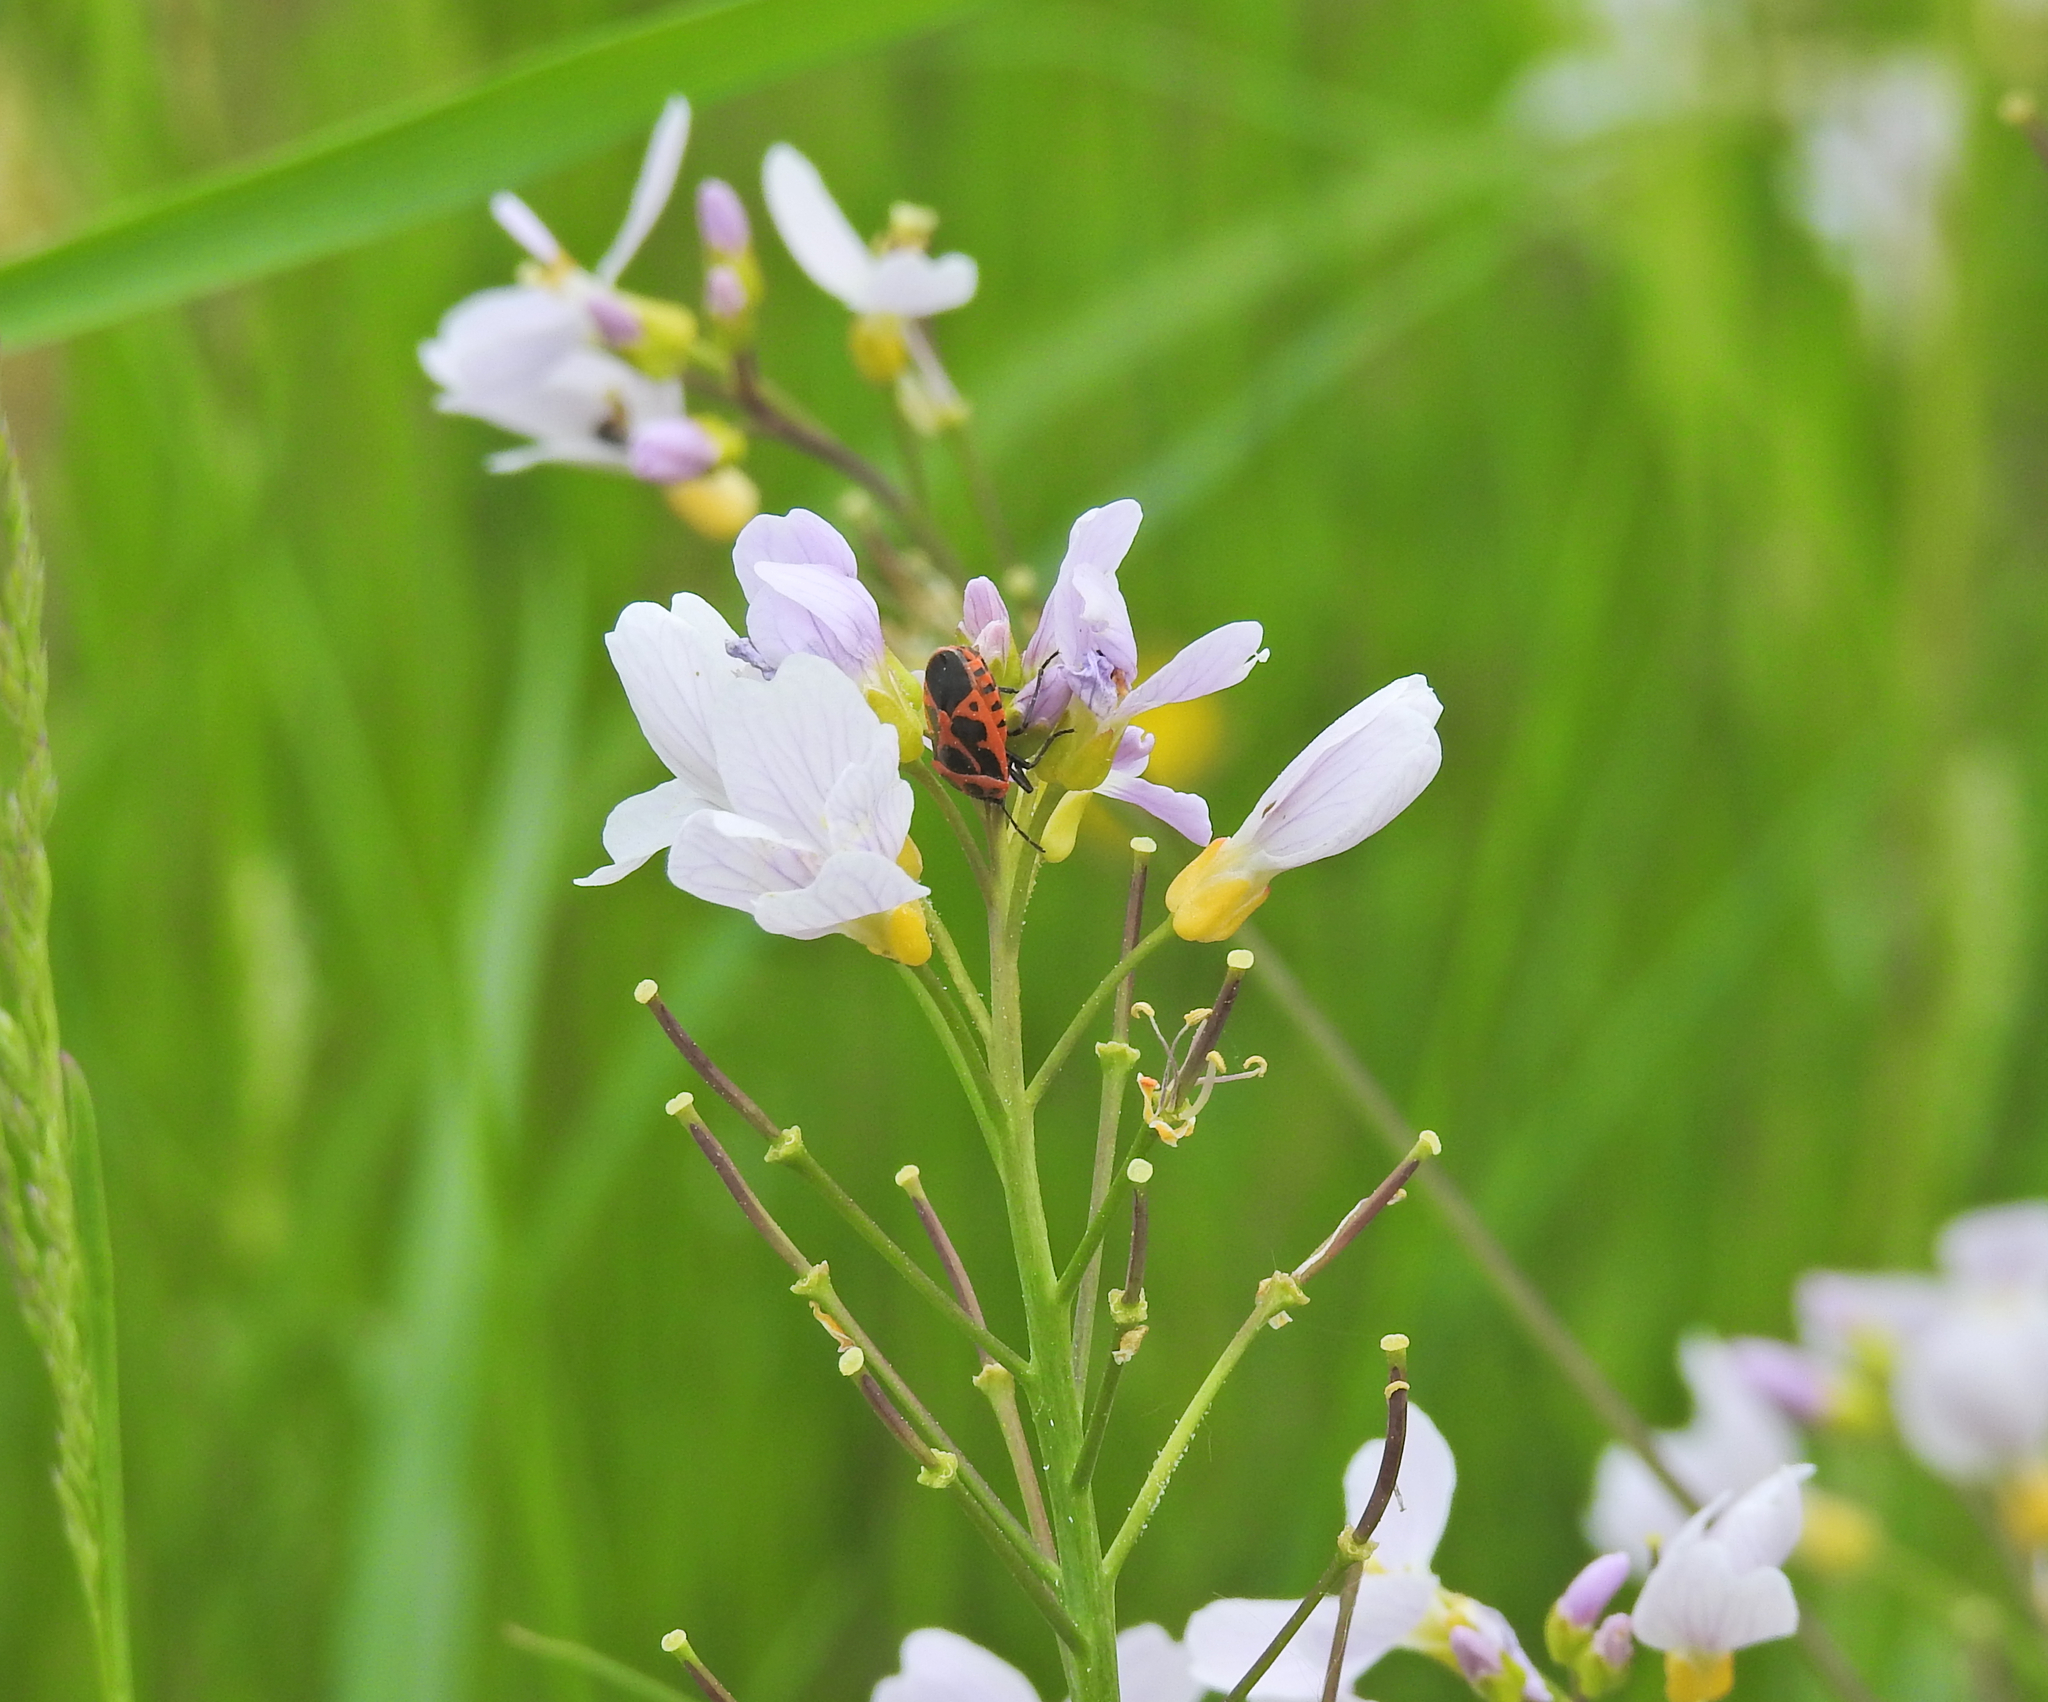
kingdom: Animalia
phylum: Arthropoda
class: Insecta
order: Hemiptera
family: Pentatomidae
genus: Eurydema
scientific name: Eurydema dominulus
